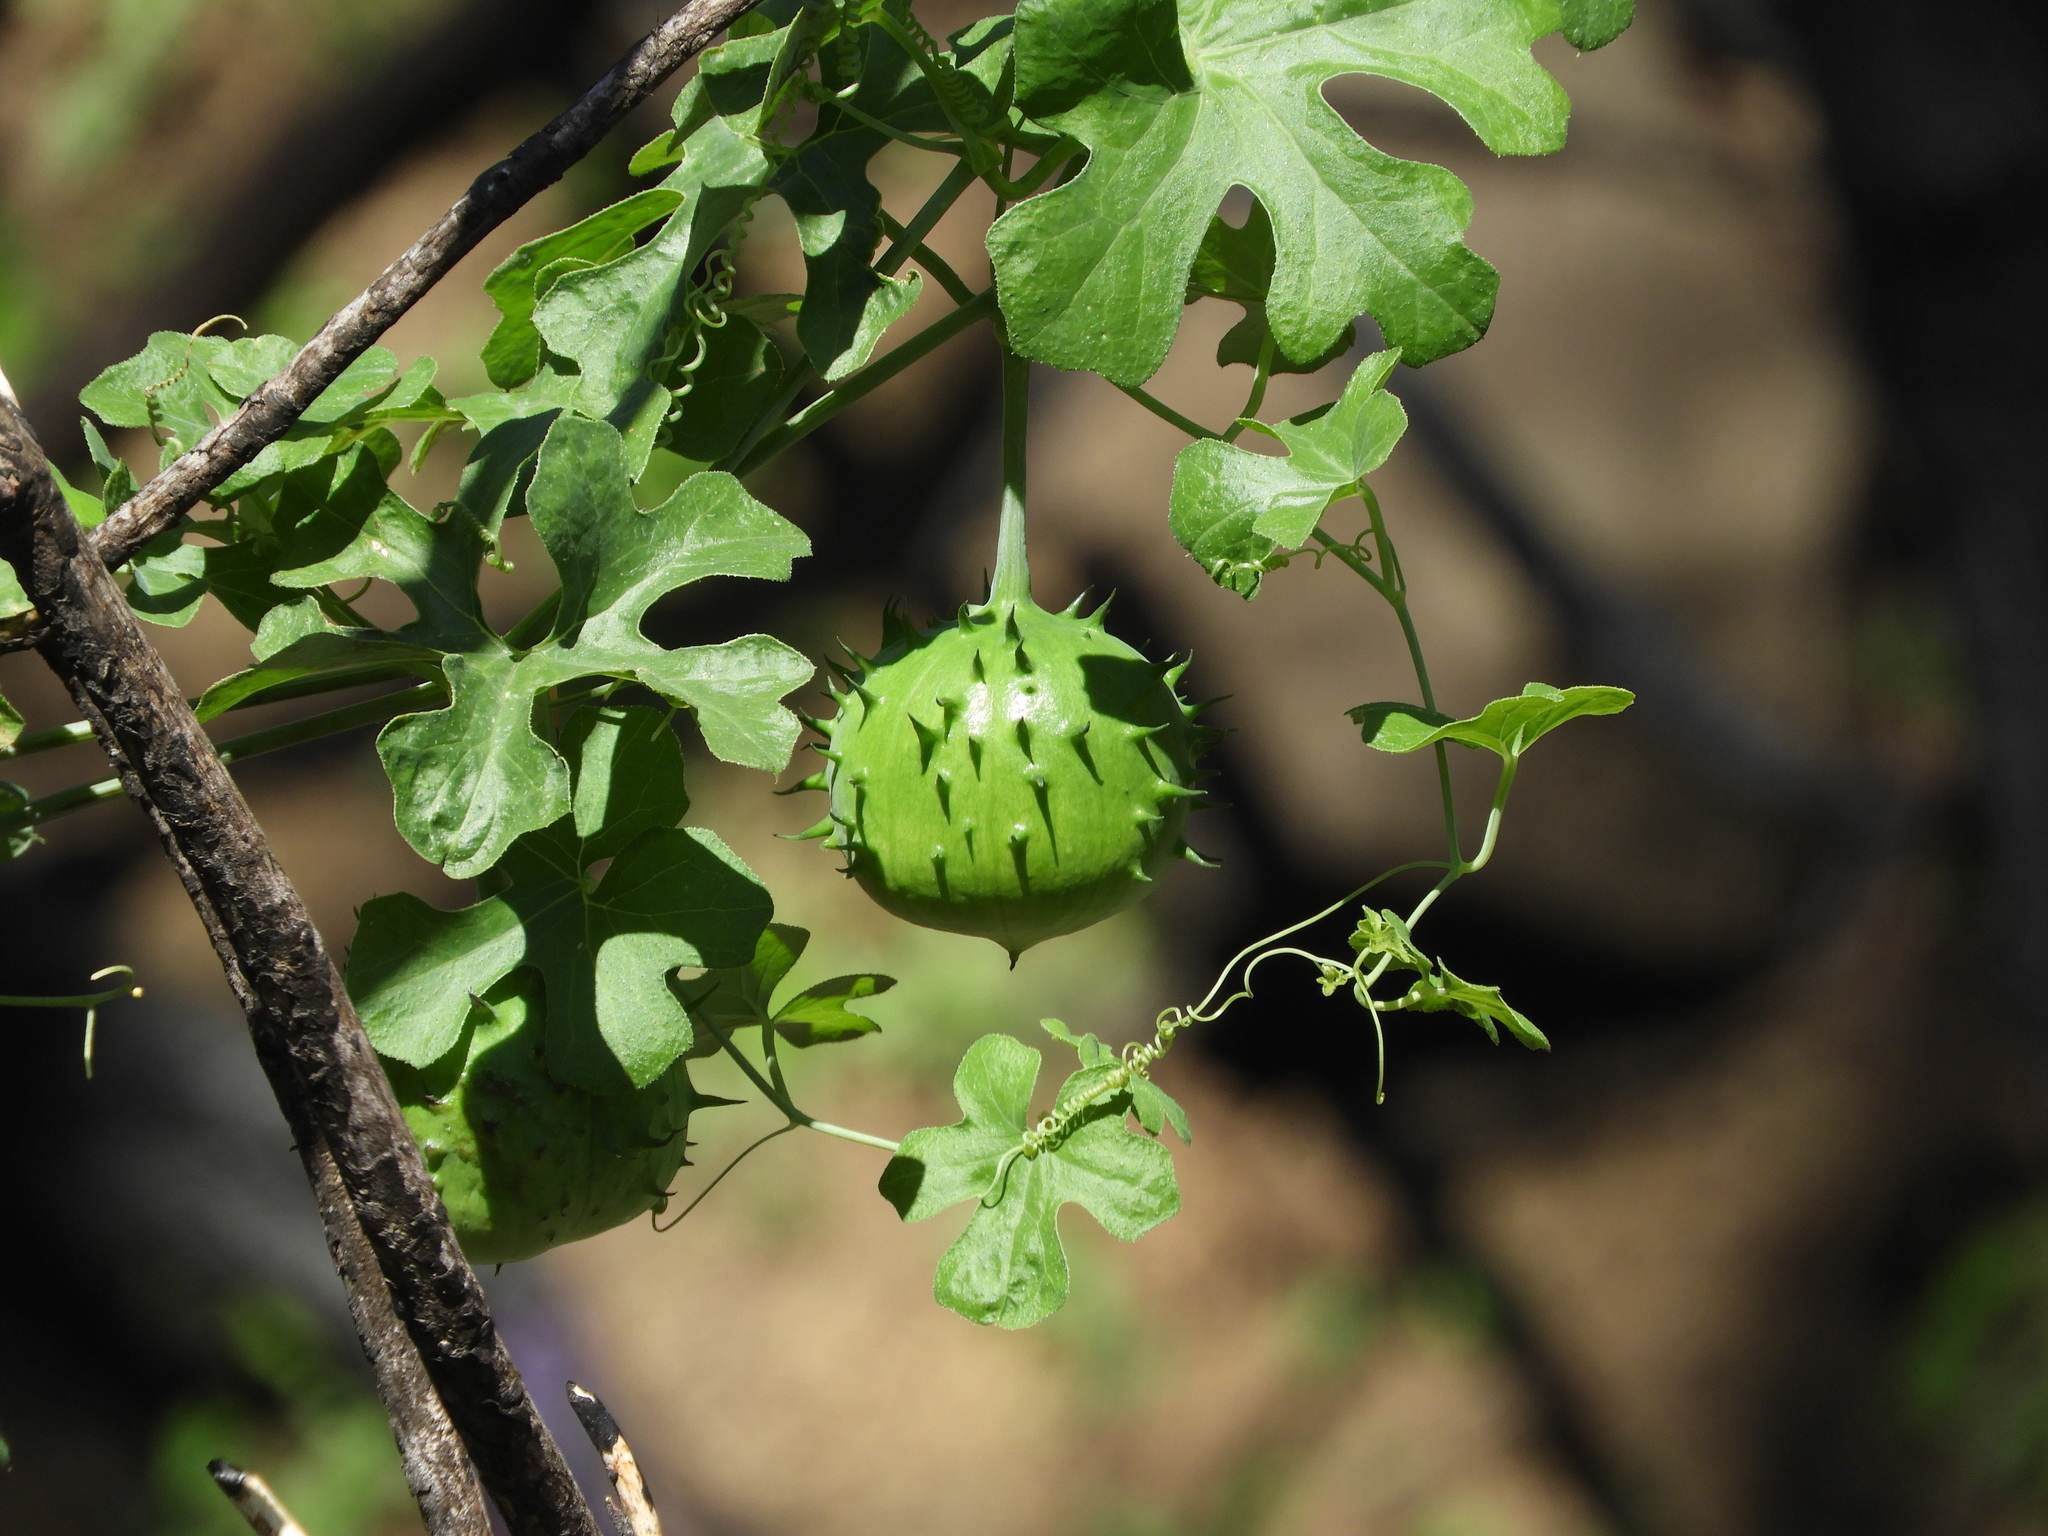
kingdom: Plantae
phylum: Tracheophyta
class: Magnoliopsida
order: Cucurbitales
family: Cucurbitaceae
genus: Marah
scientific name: Marah watsonii
